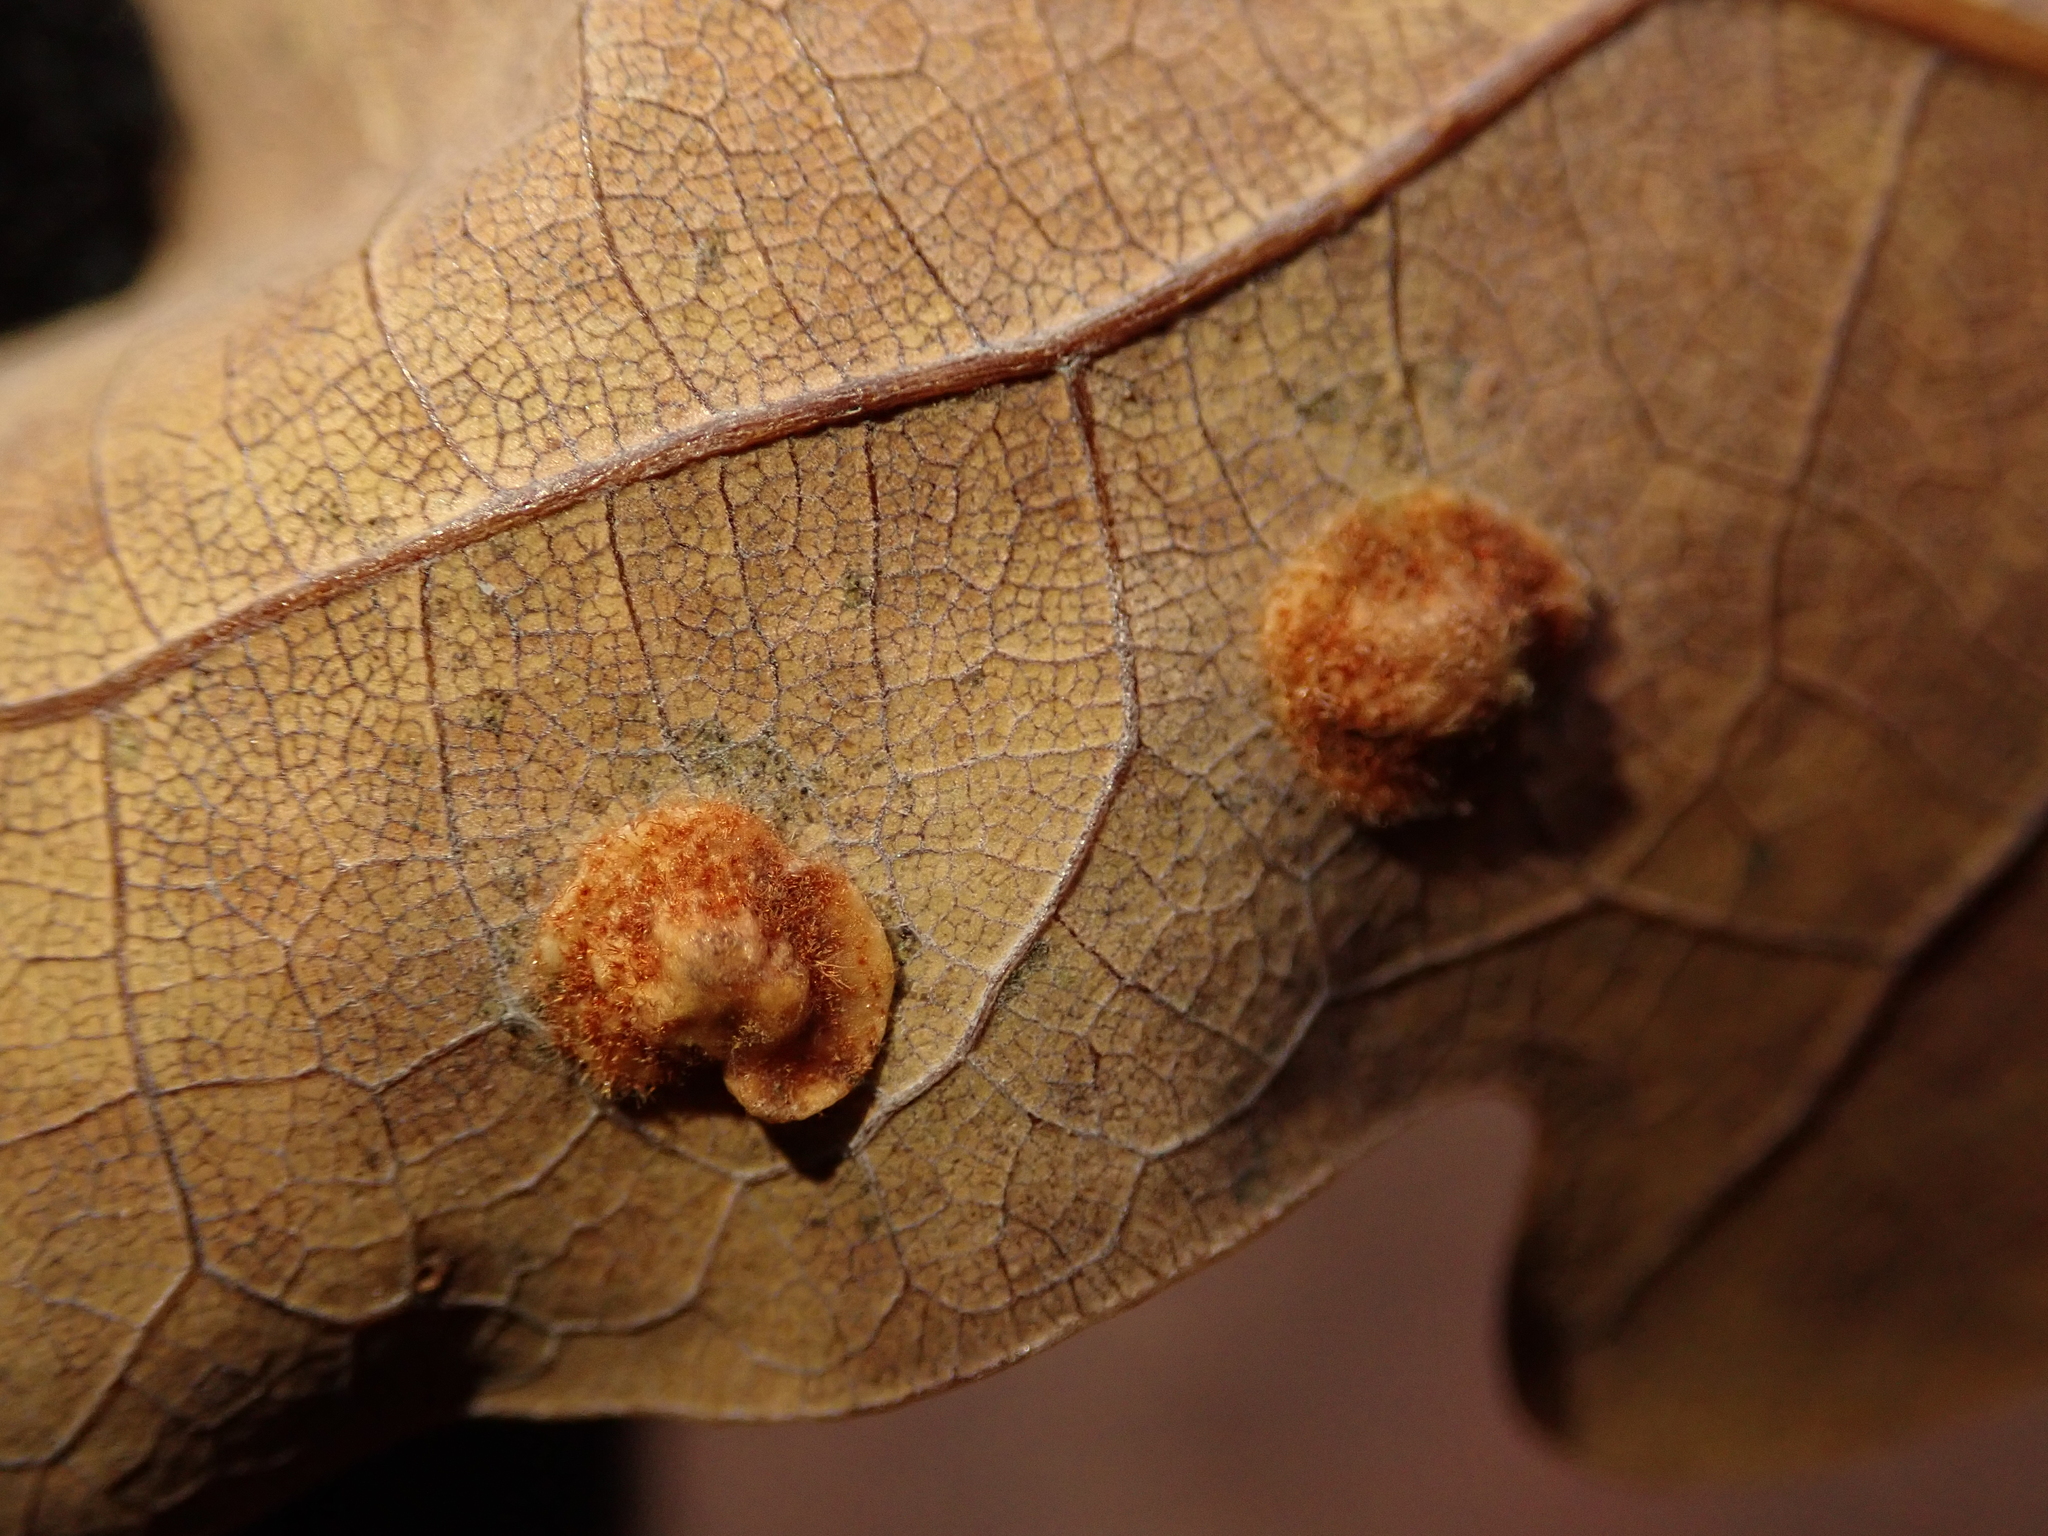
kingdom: Animalia
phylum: Arthropoda
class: Insecta
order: Hymenoptera
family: Cynipidae
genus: Neuroterus
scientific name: Neuroterus quercusbaccarum
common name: Common spangle gall
